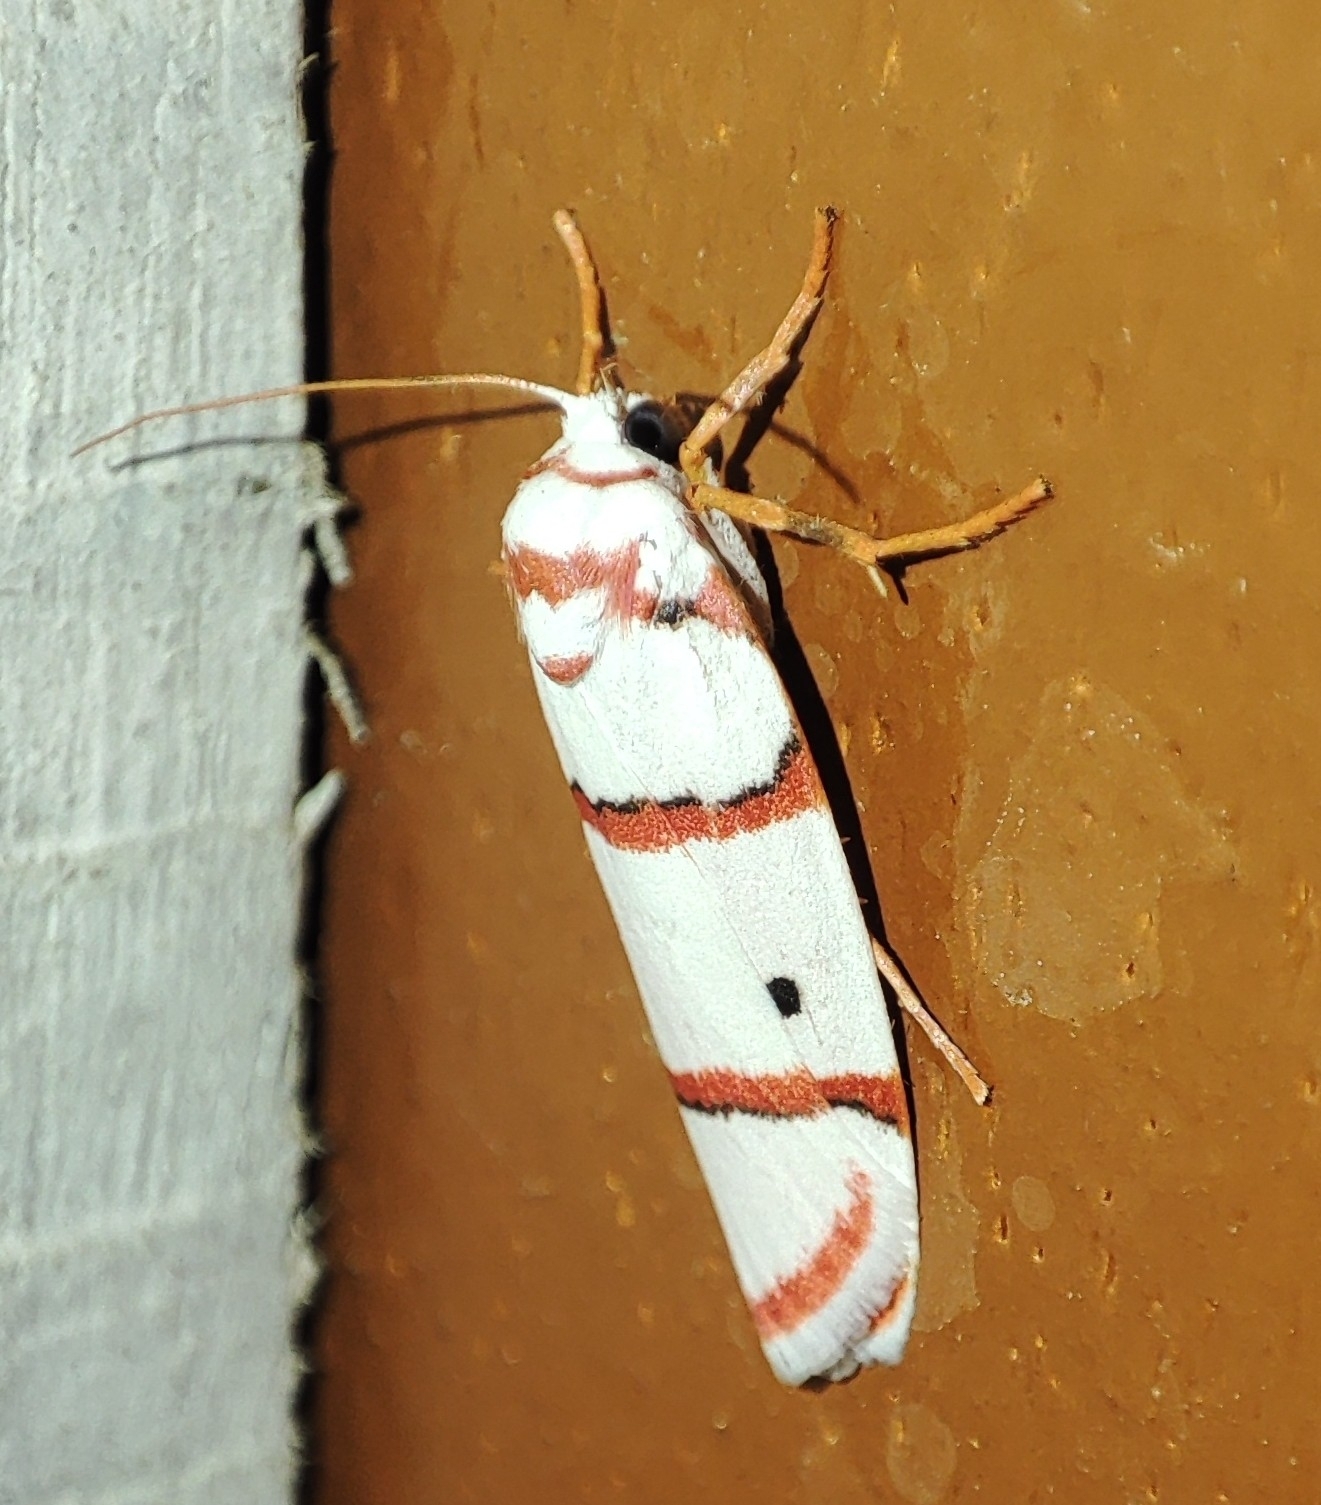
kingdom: Animalia
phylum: Arthropoda
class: Insecta
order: Lepidoptera
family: Erebidae
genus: Cyana
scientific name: Cyana peregrina
